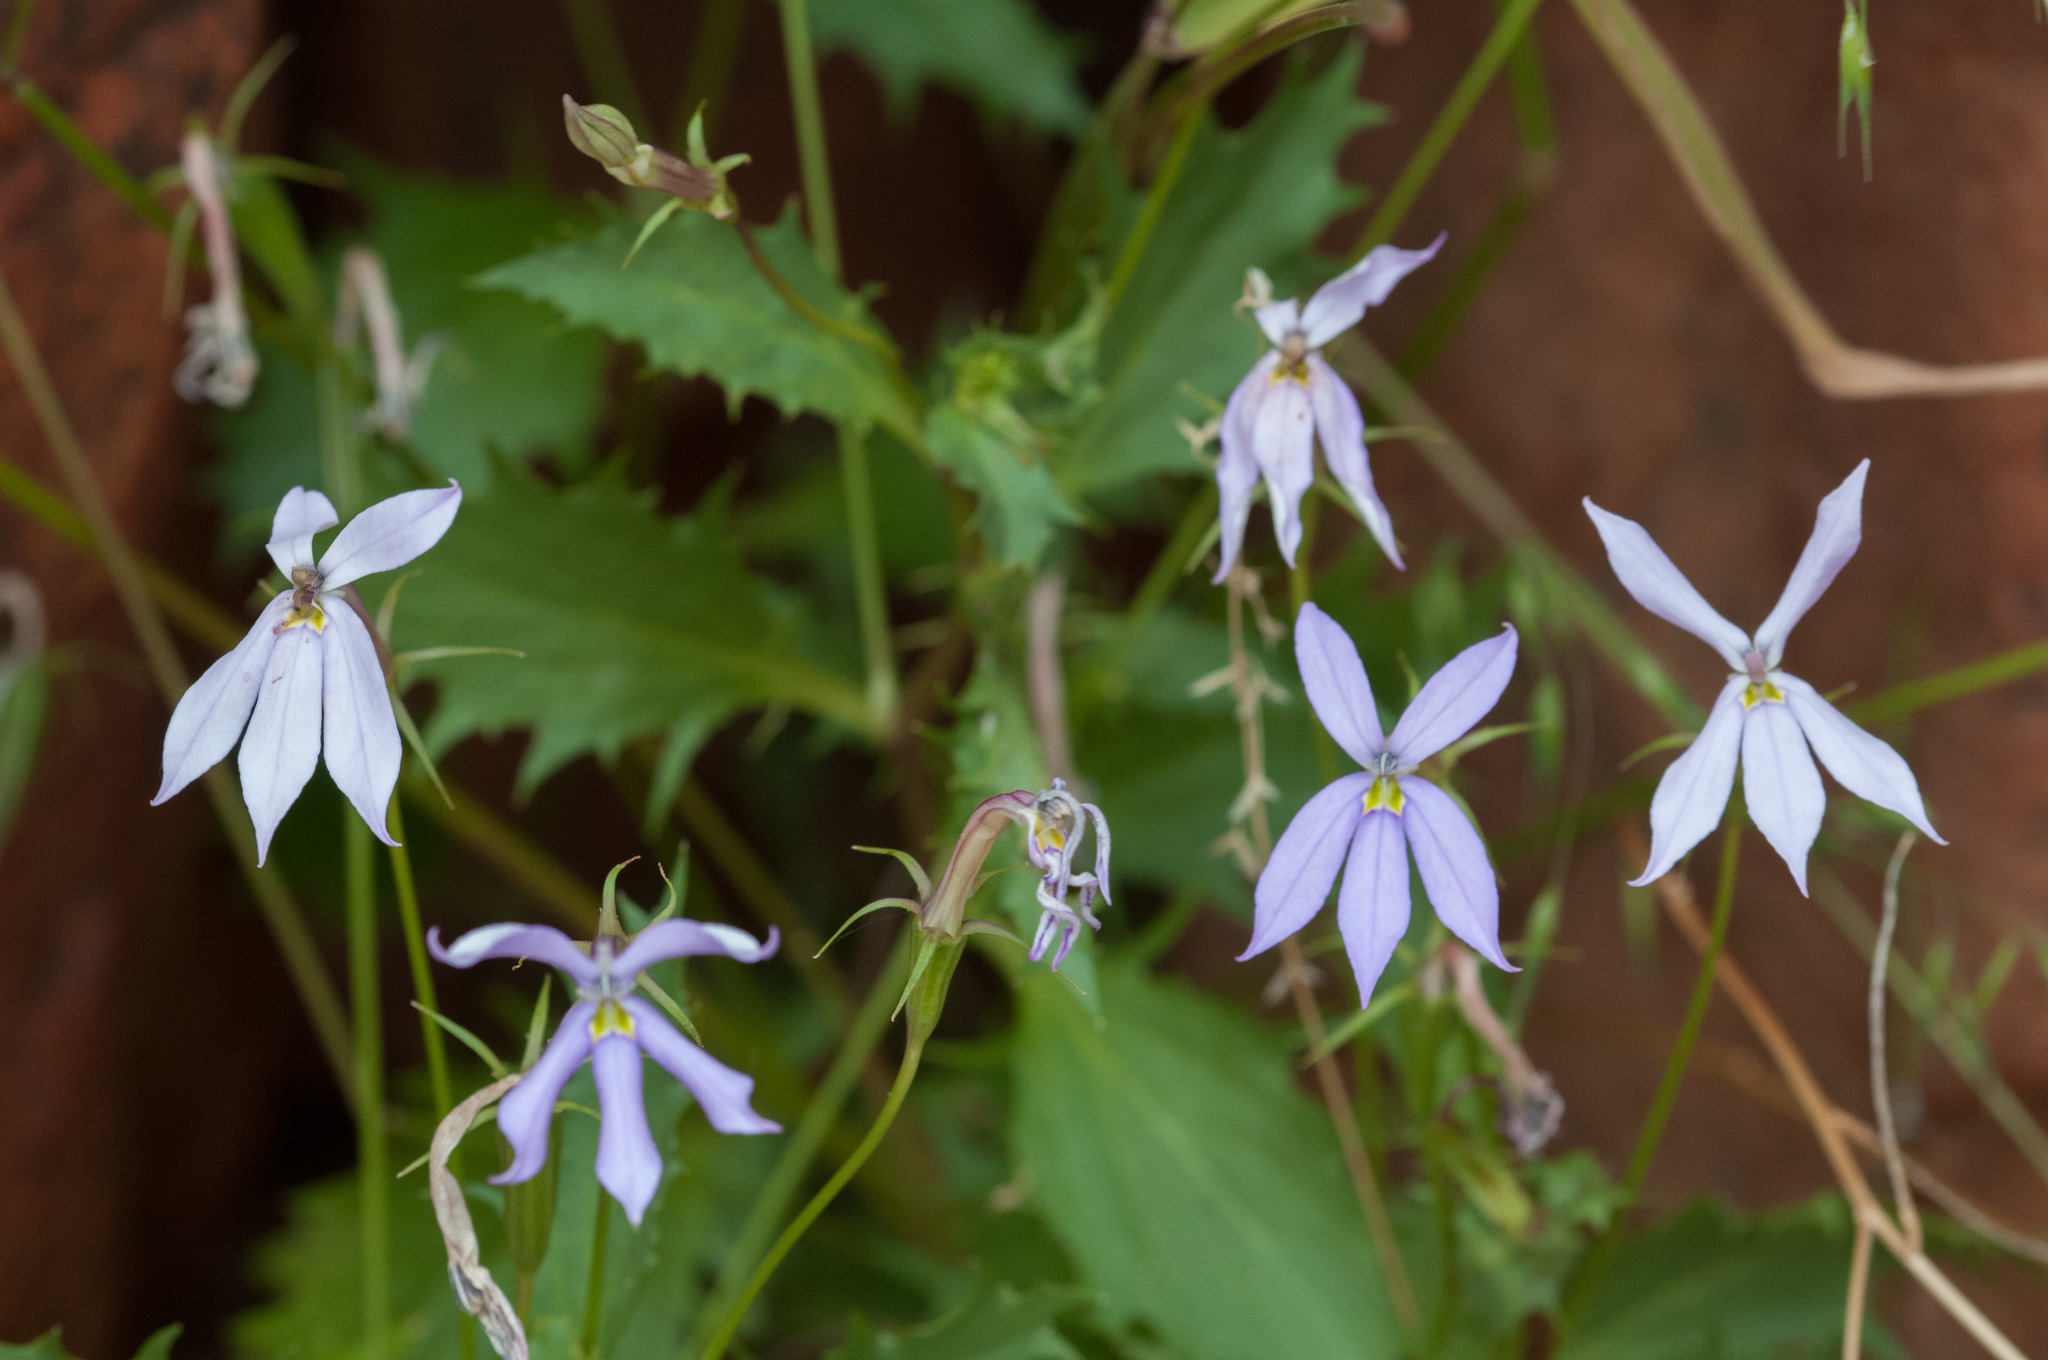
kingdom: Plantae
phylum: Tracheophyta
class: Magnoliopsida
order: Asterales
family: Campanulaceae
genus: Lithotoma
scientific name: Lithotoma petraea
